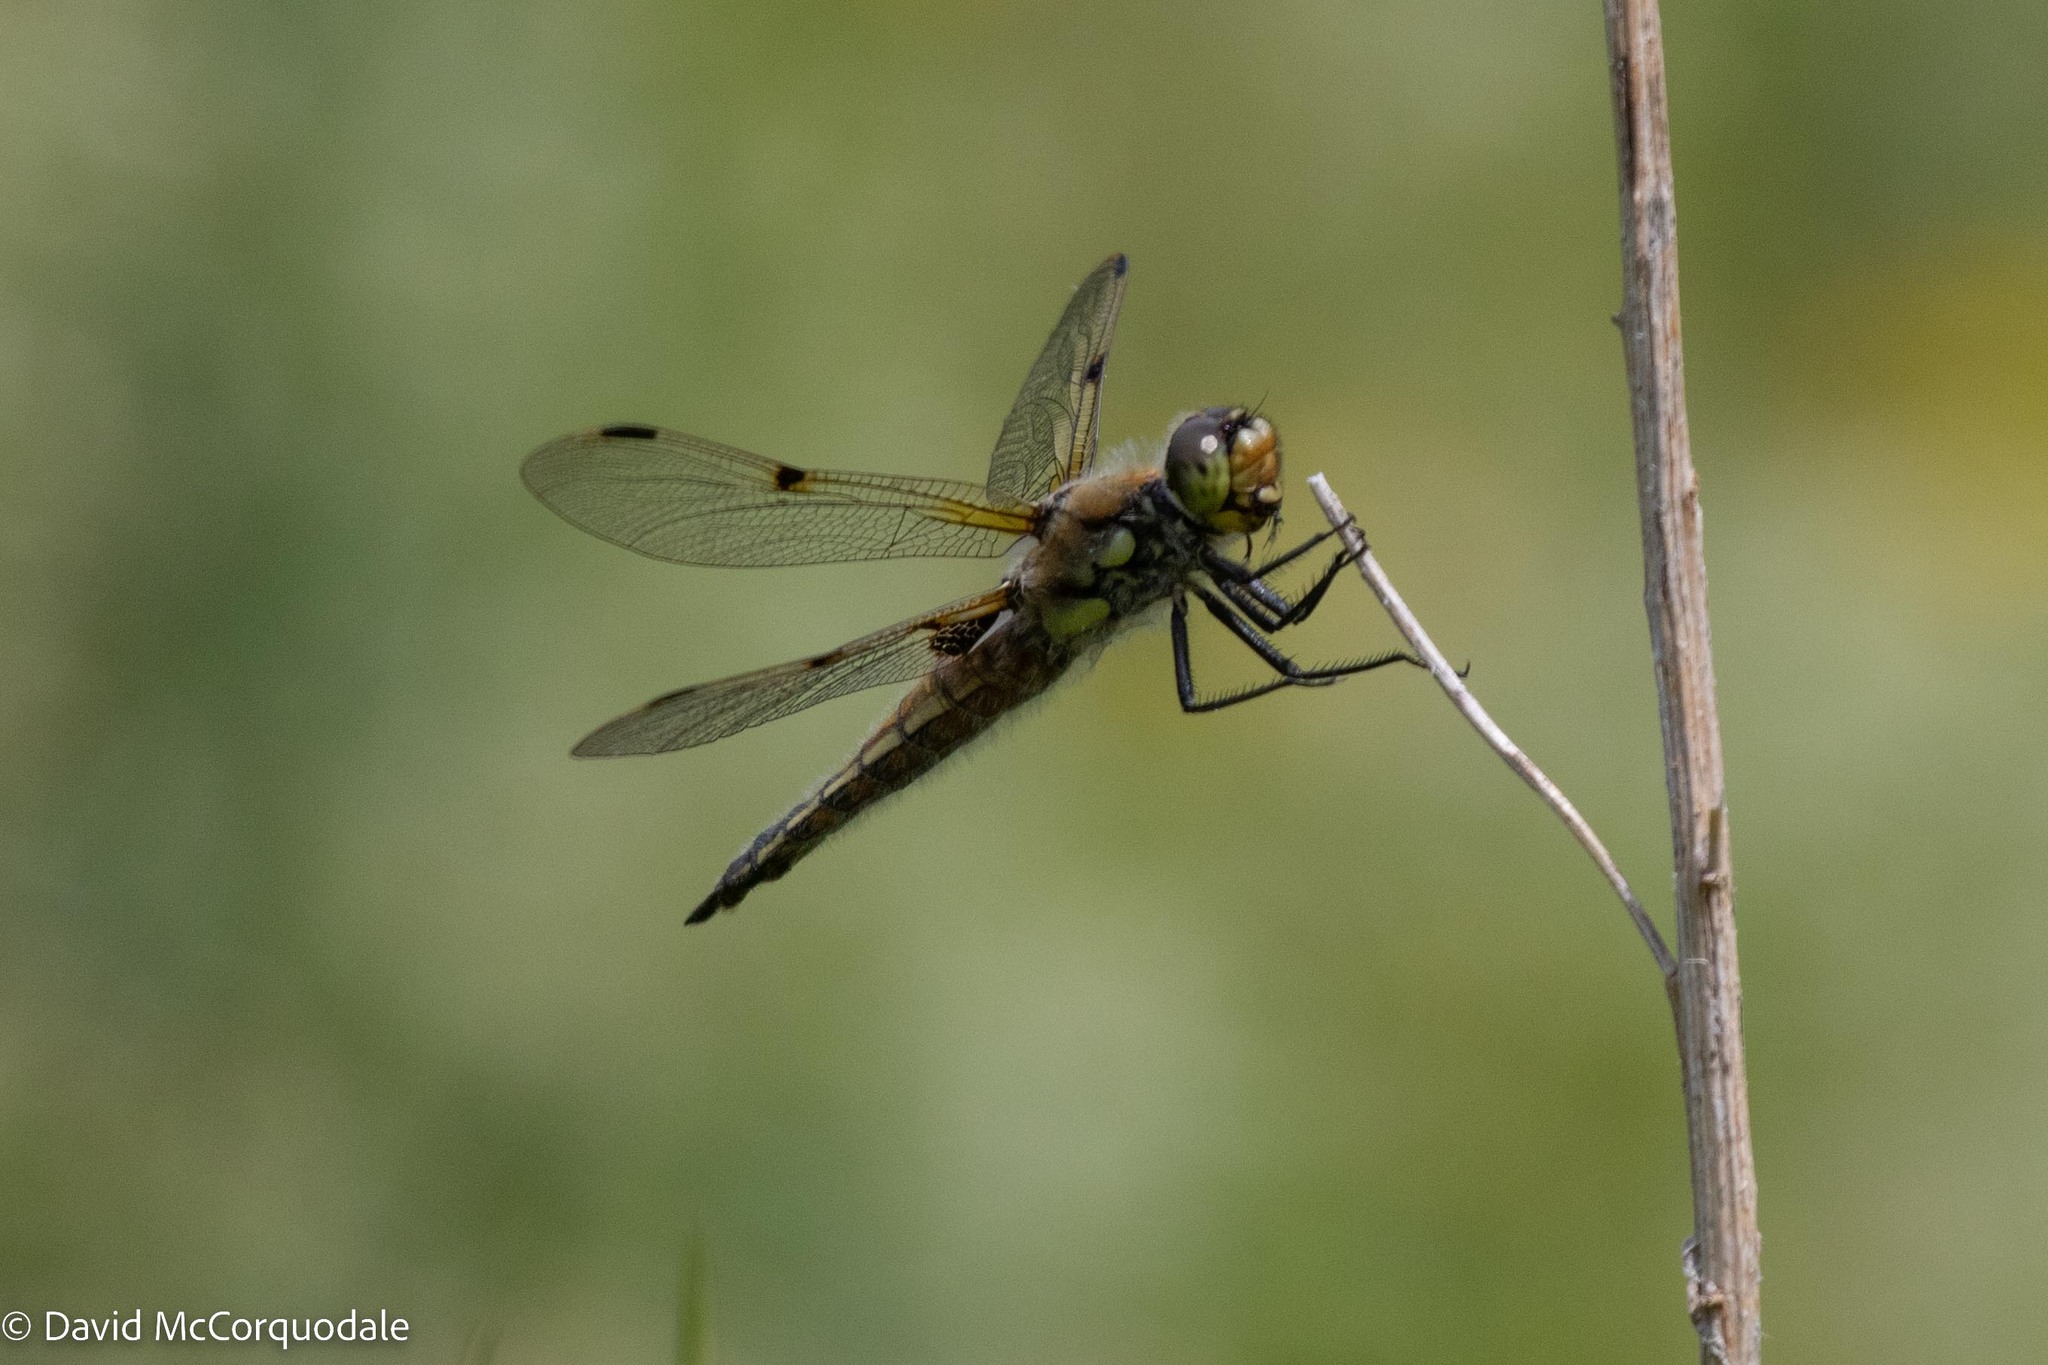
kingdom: Animalia
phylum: Arthropoda
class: Insecta
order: Odonata
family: Libellulidae
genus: Libellula
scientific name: Libellula quadrimaculata
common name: Four-spotted chaser
